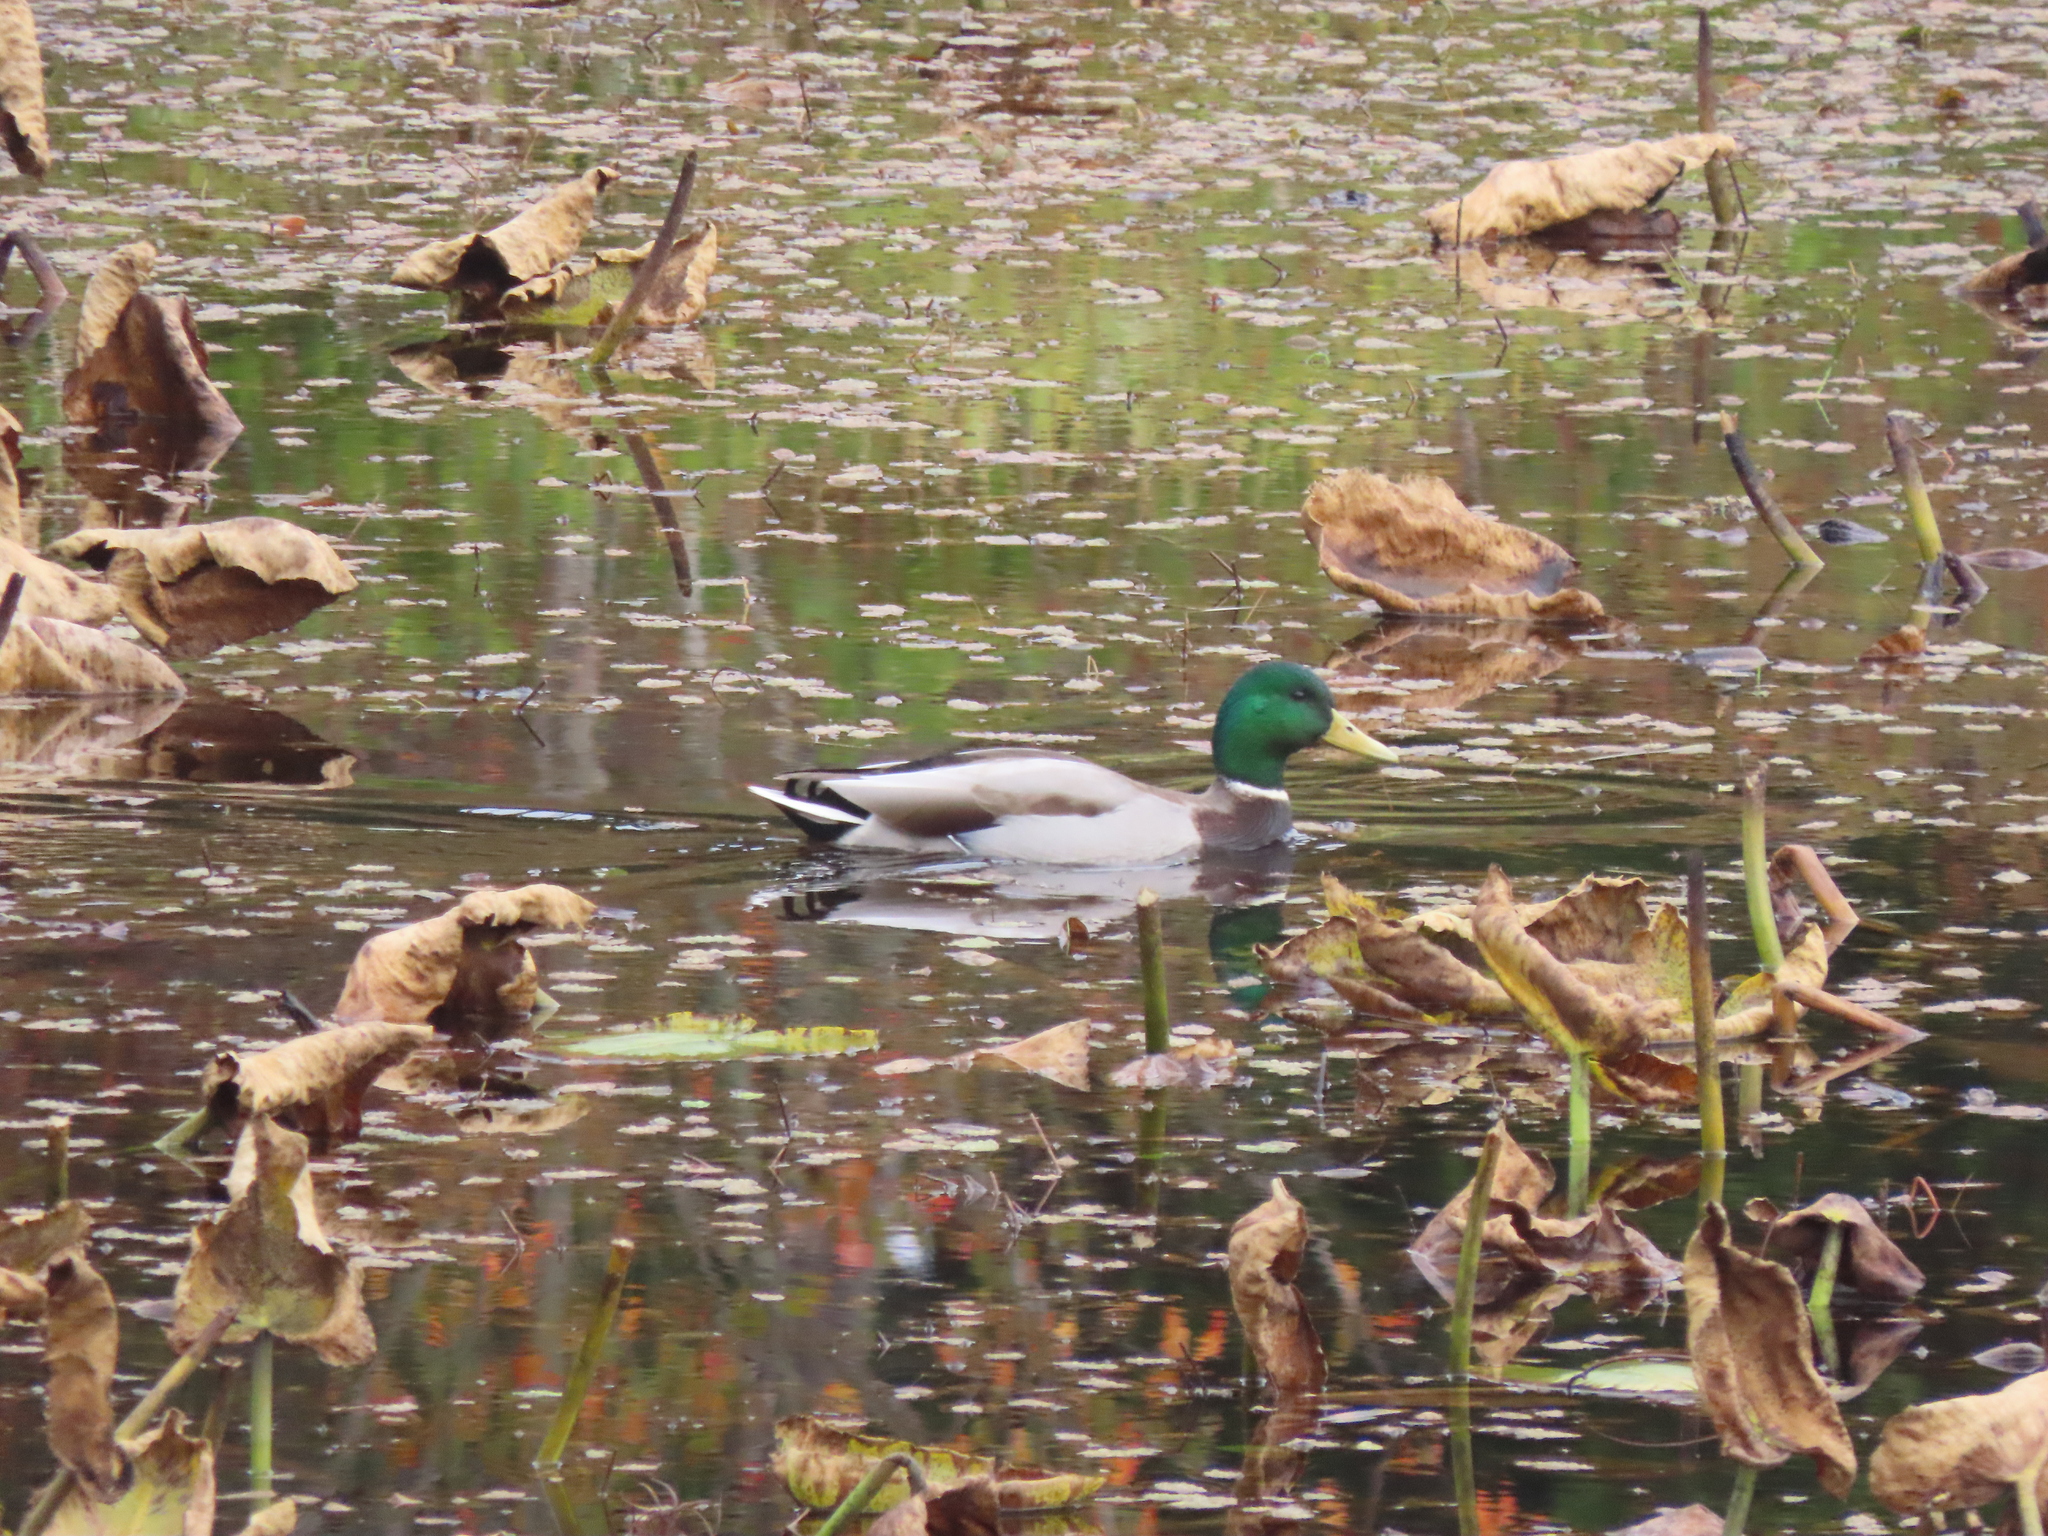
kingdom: Animalia
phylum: Chordata
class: Aves
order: Anseriformes
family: Anatidae
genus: Anas
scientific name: Anas platyrhynchos
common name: Mallard
